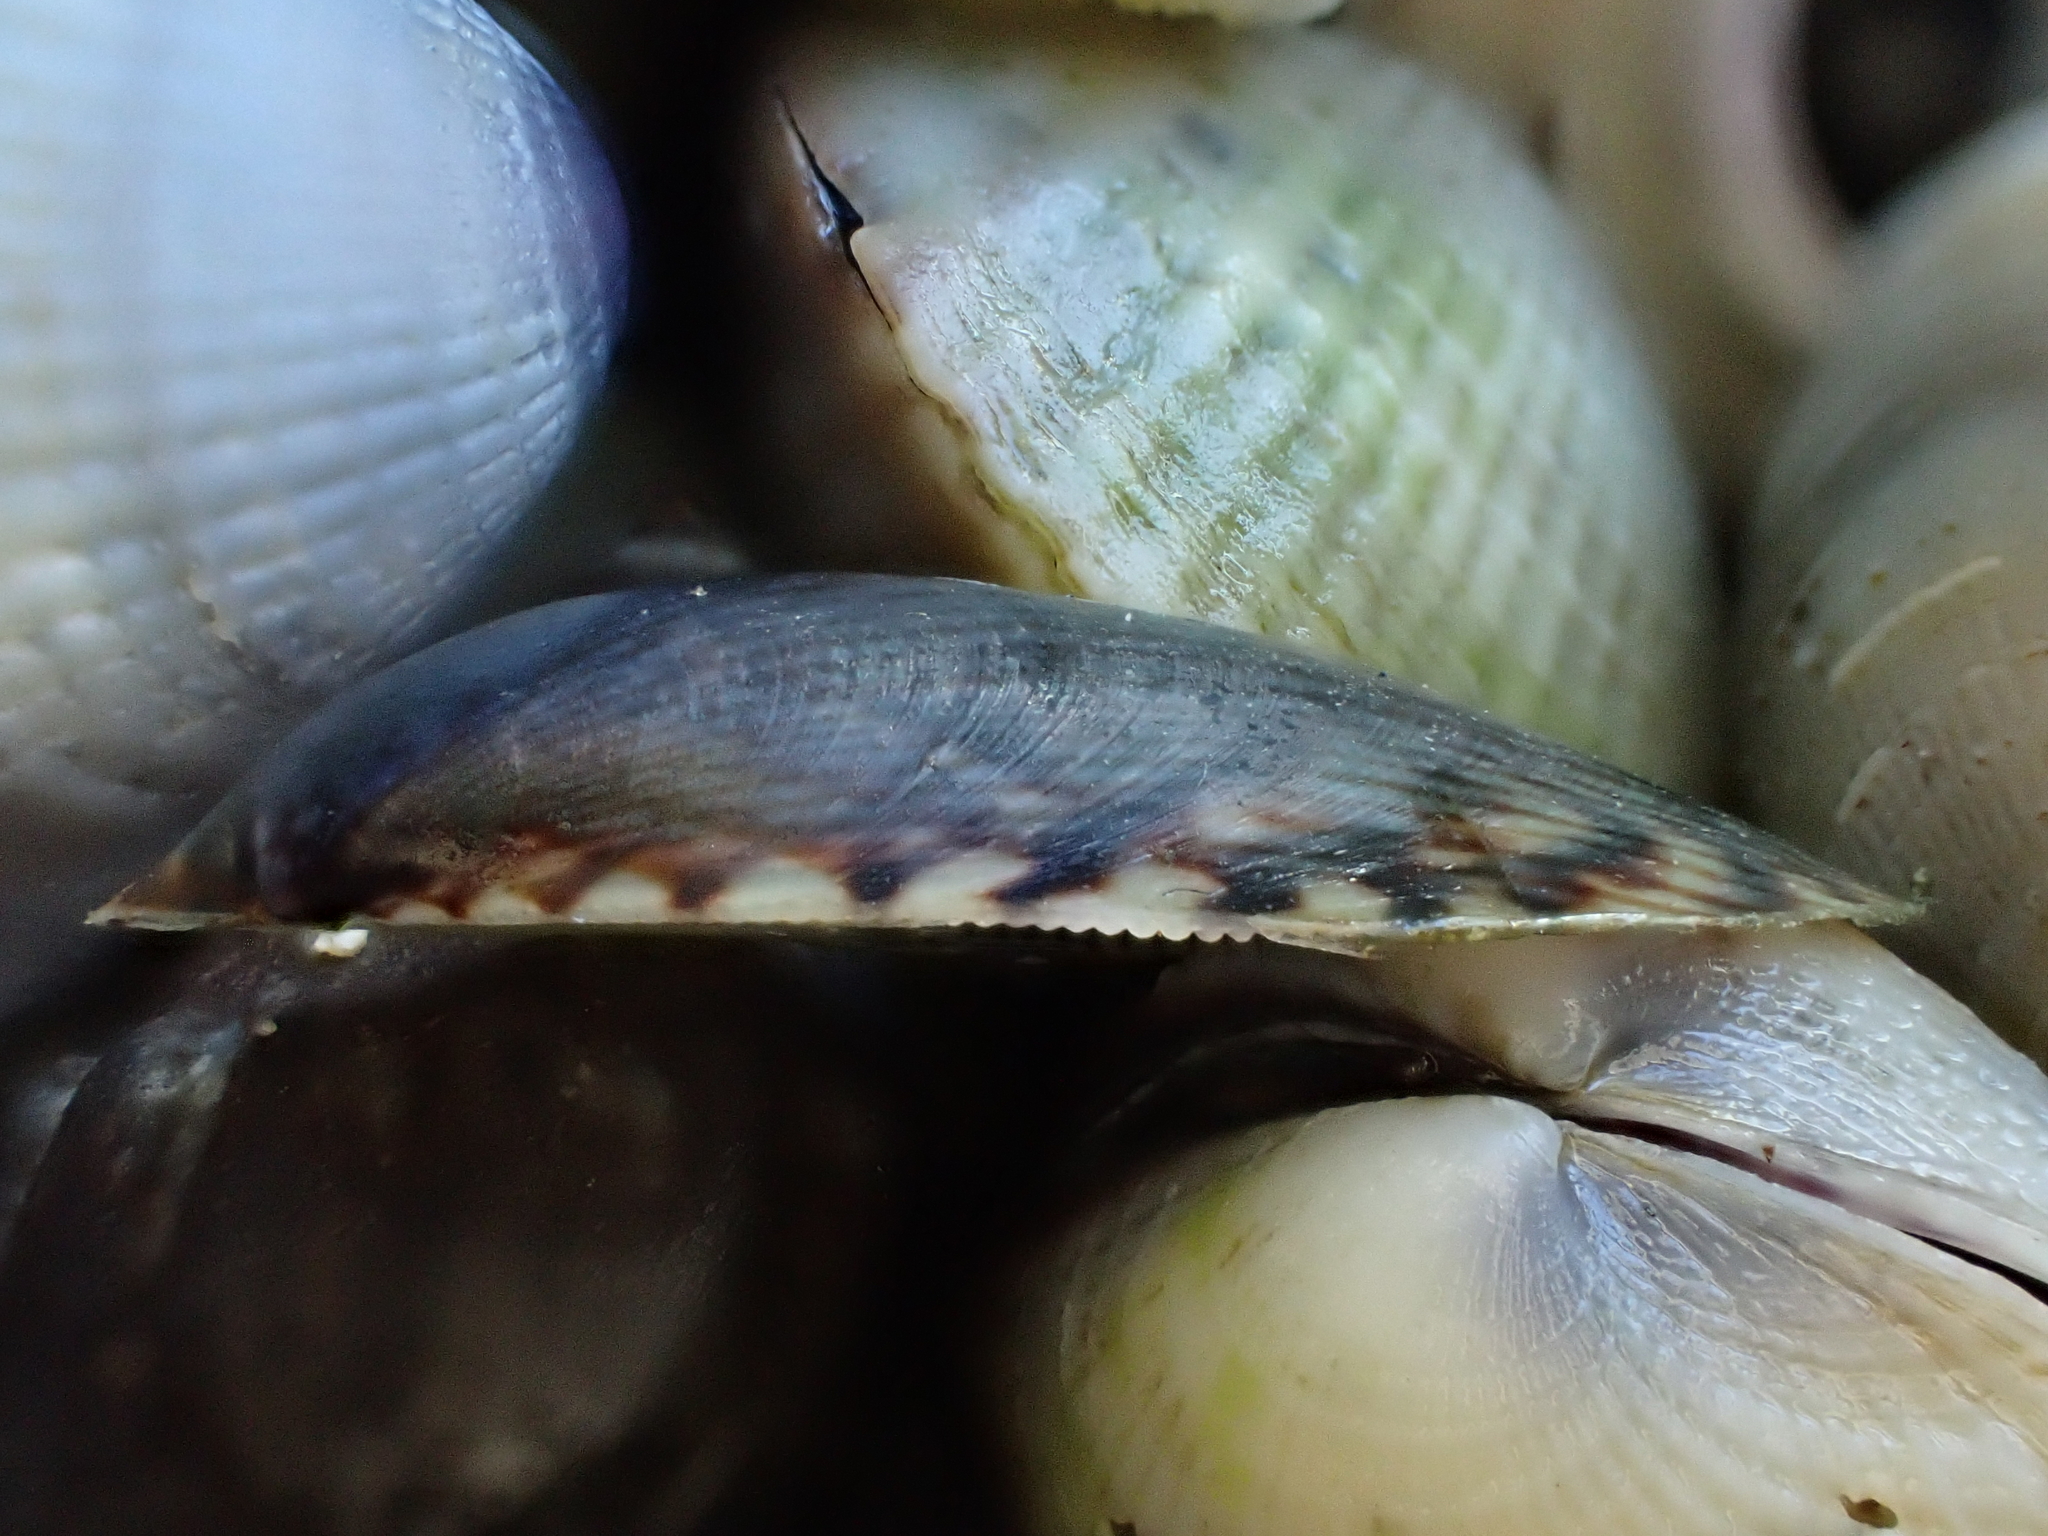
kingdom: Animalia
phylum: Mollusca
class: Bivalvia
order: Mytilida
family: Mytilidae
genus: Arcuatula
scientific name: Arcuatula senhousia
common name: Asian mussel
